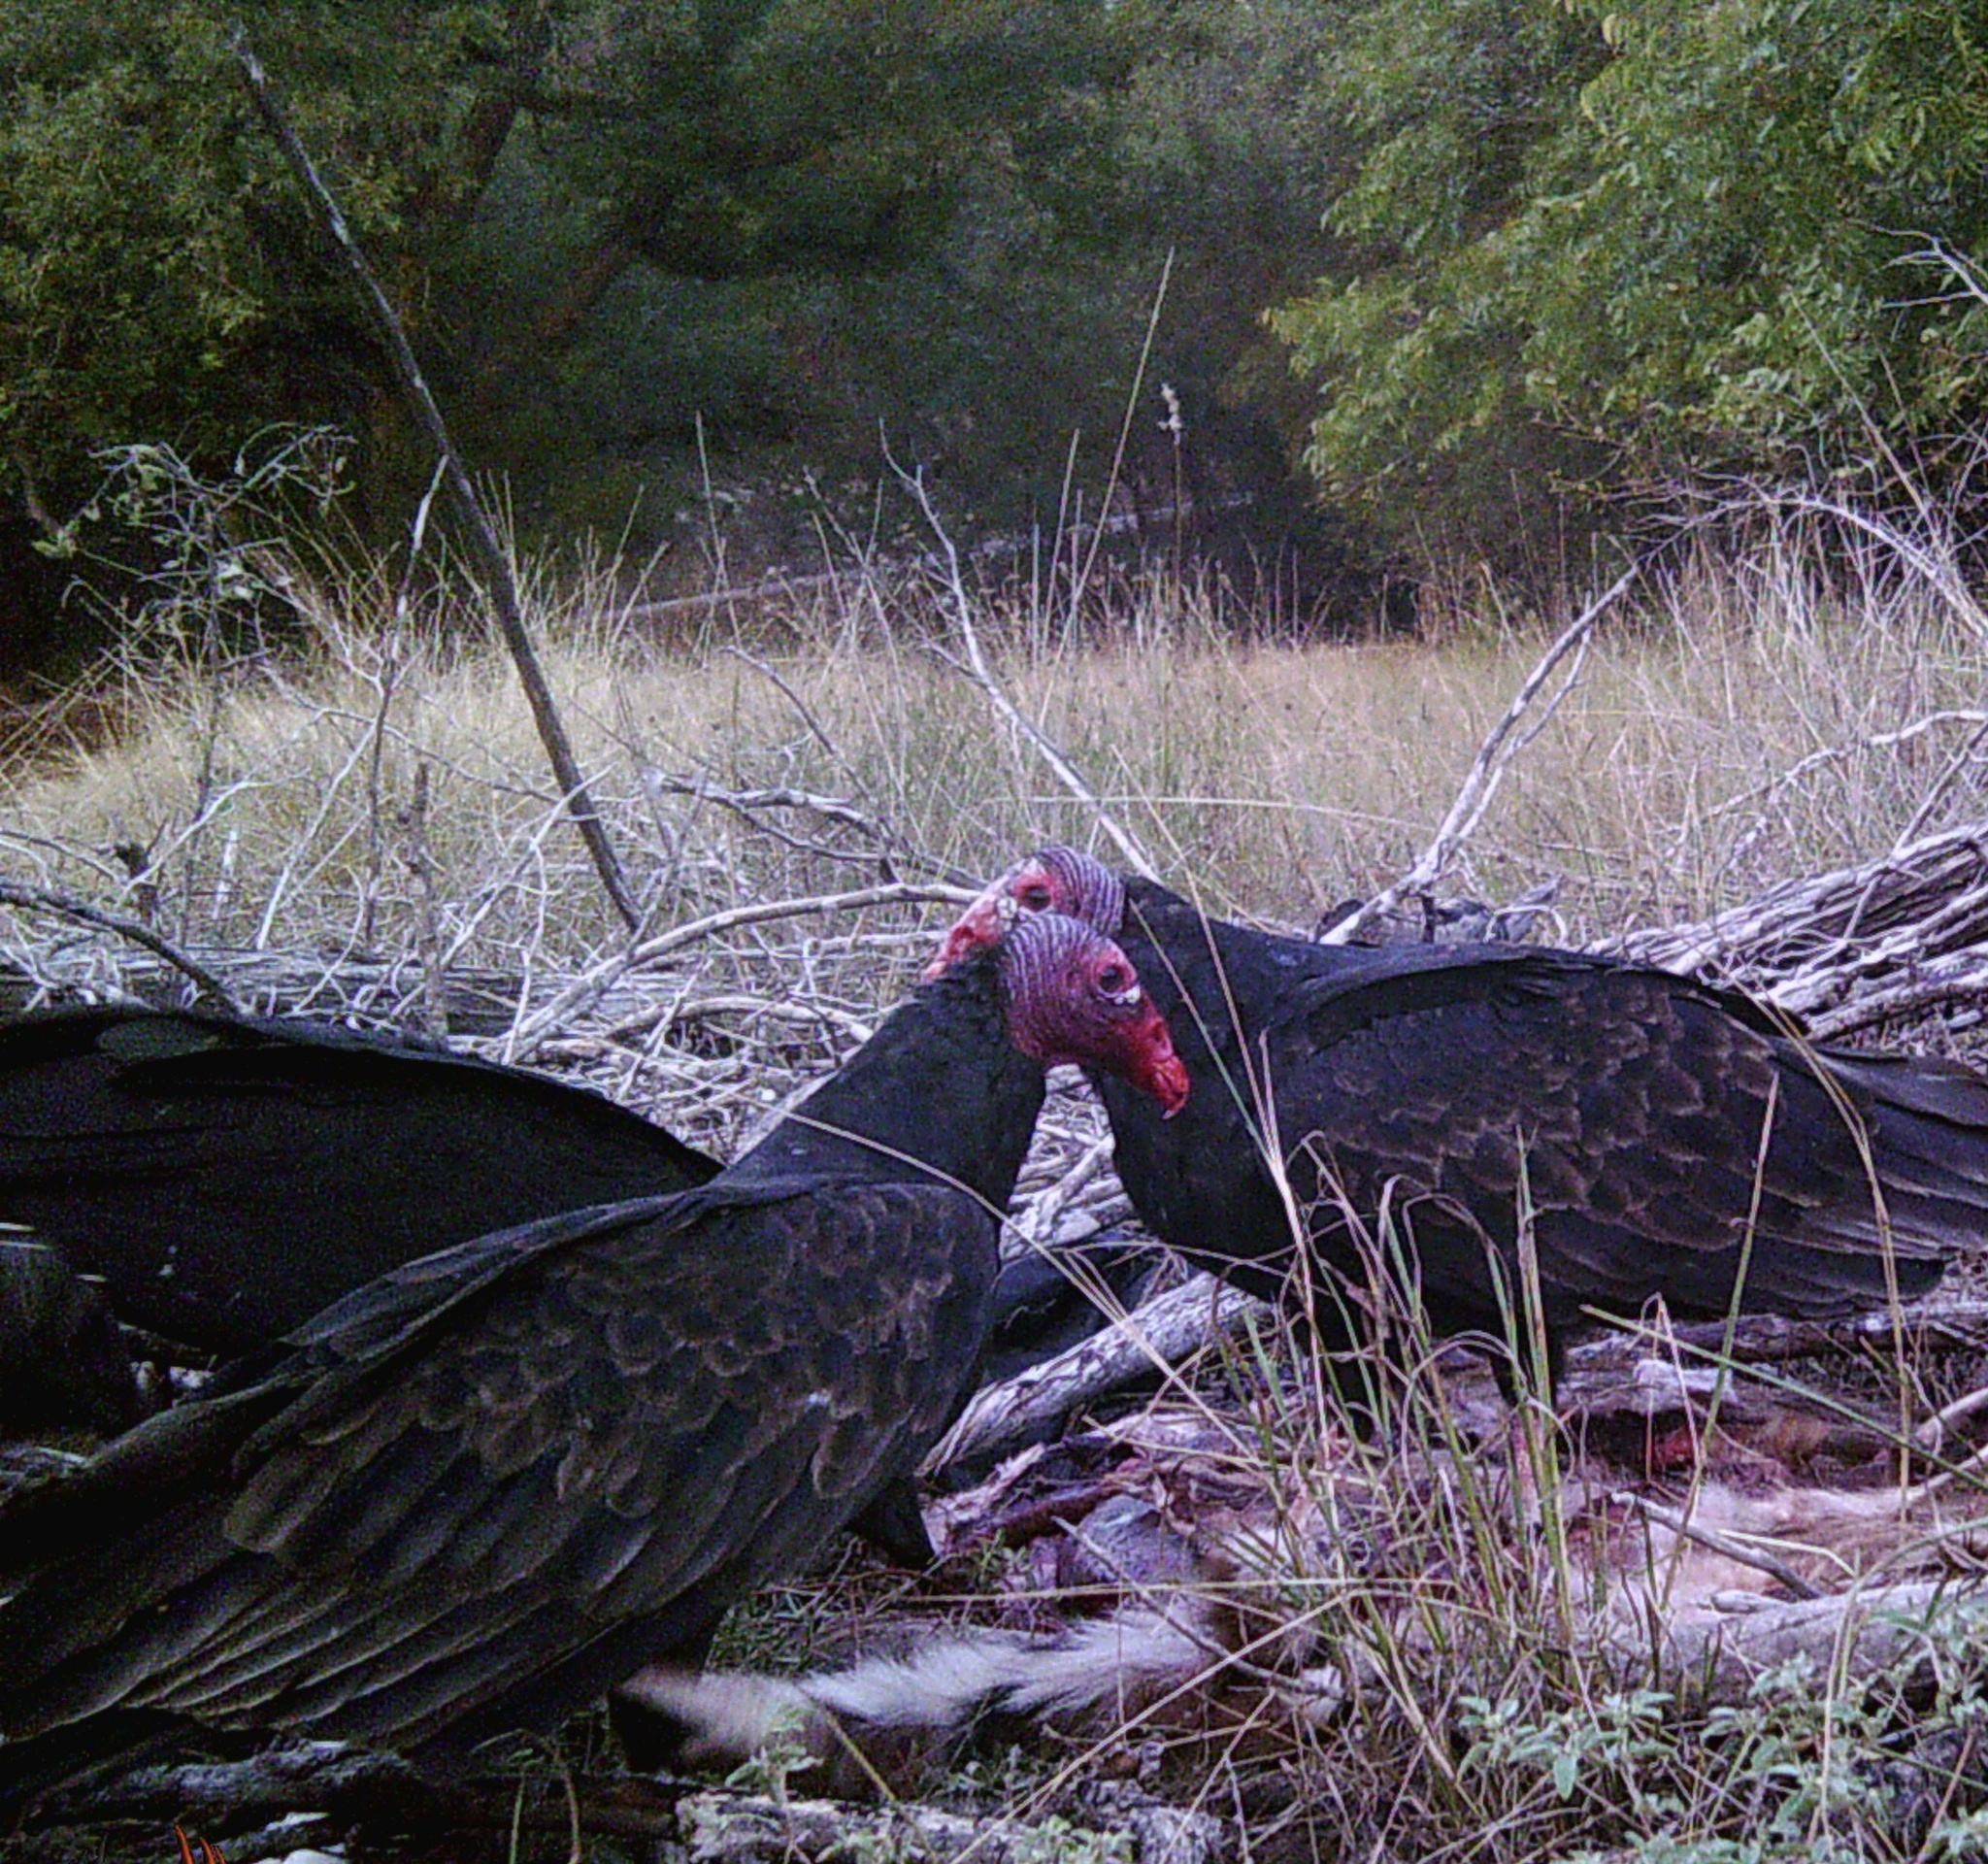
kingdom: Animalia
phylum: Chordata
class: Aves
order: Accipitriformes
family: Cathartidae
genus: Cathartes
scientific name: Cathartes aura
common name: Turkey vulture
